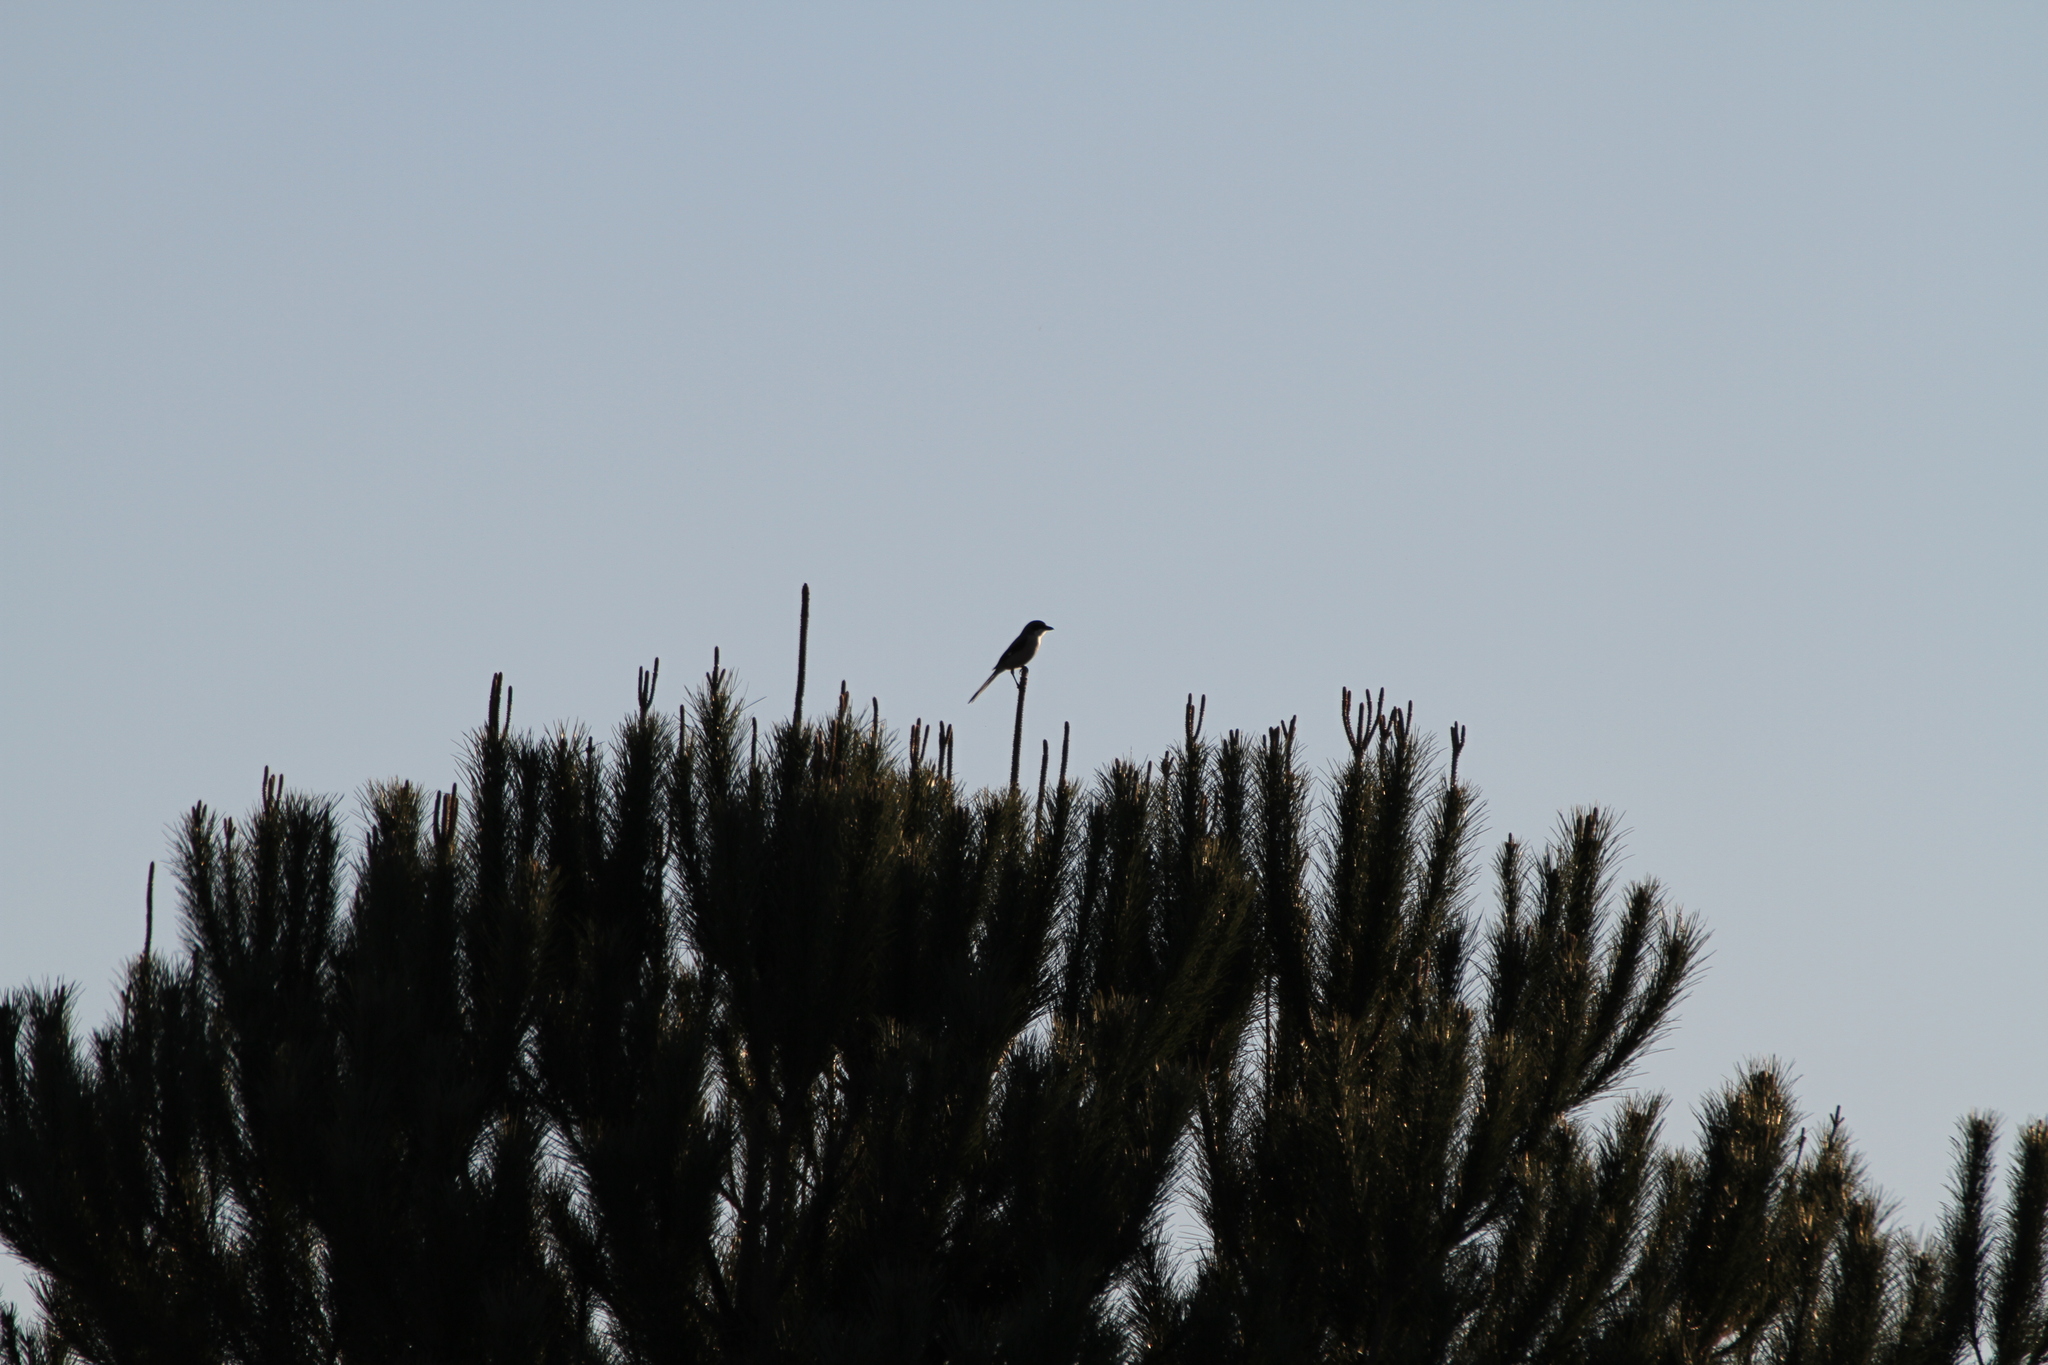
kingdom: Animalia
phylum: Chordata
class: Aves
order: Passeriformes
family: Laniidae
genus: Lanius
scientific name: Lanius meridionalis
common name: Iberian grey shrike
